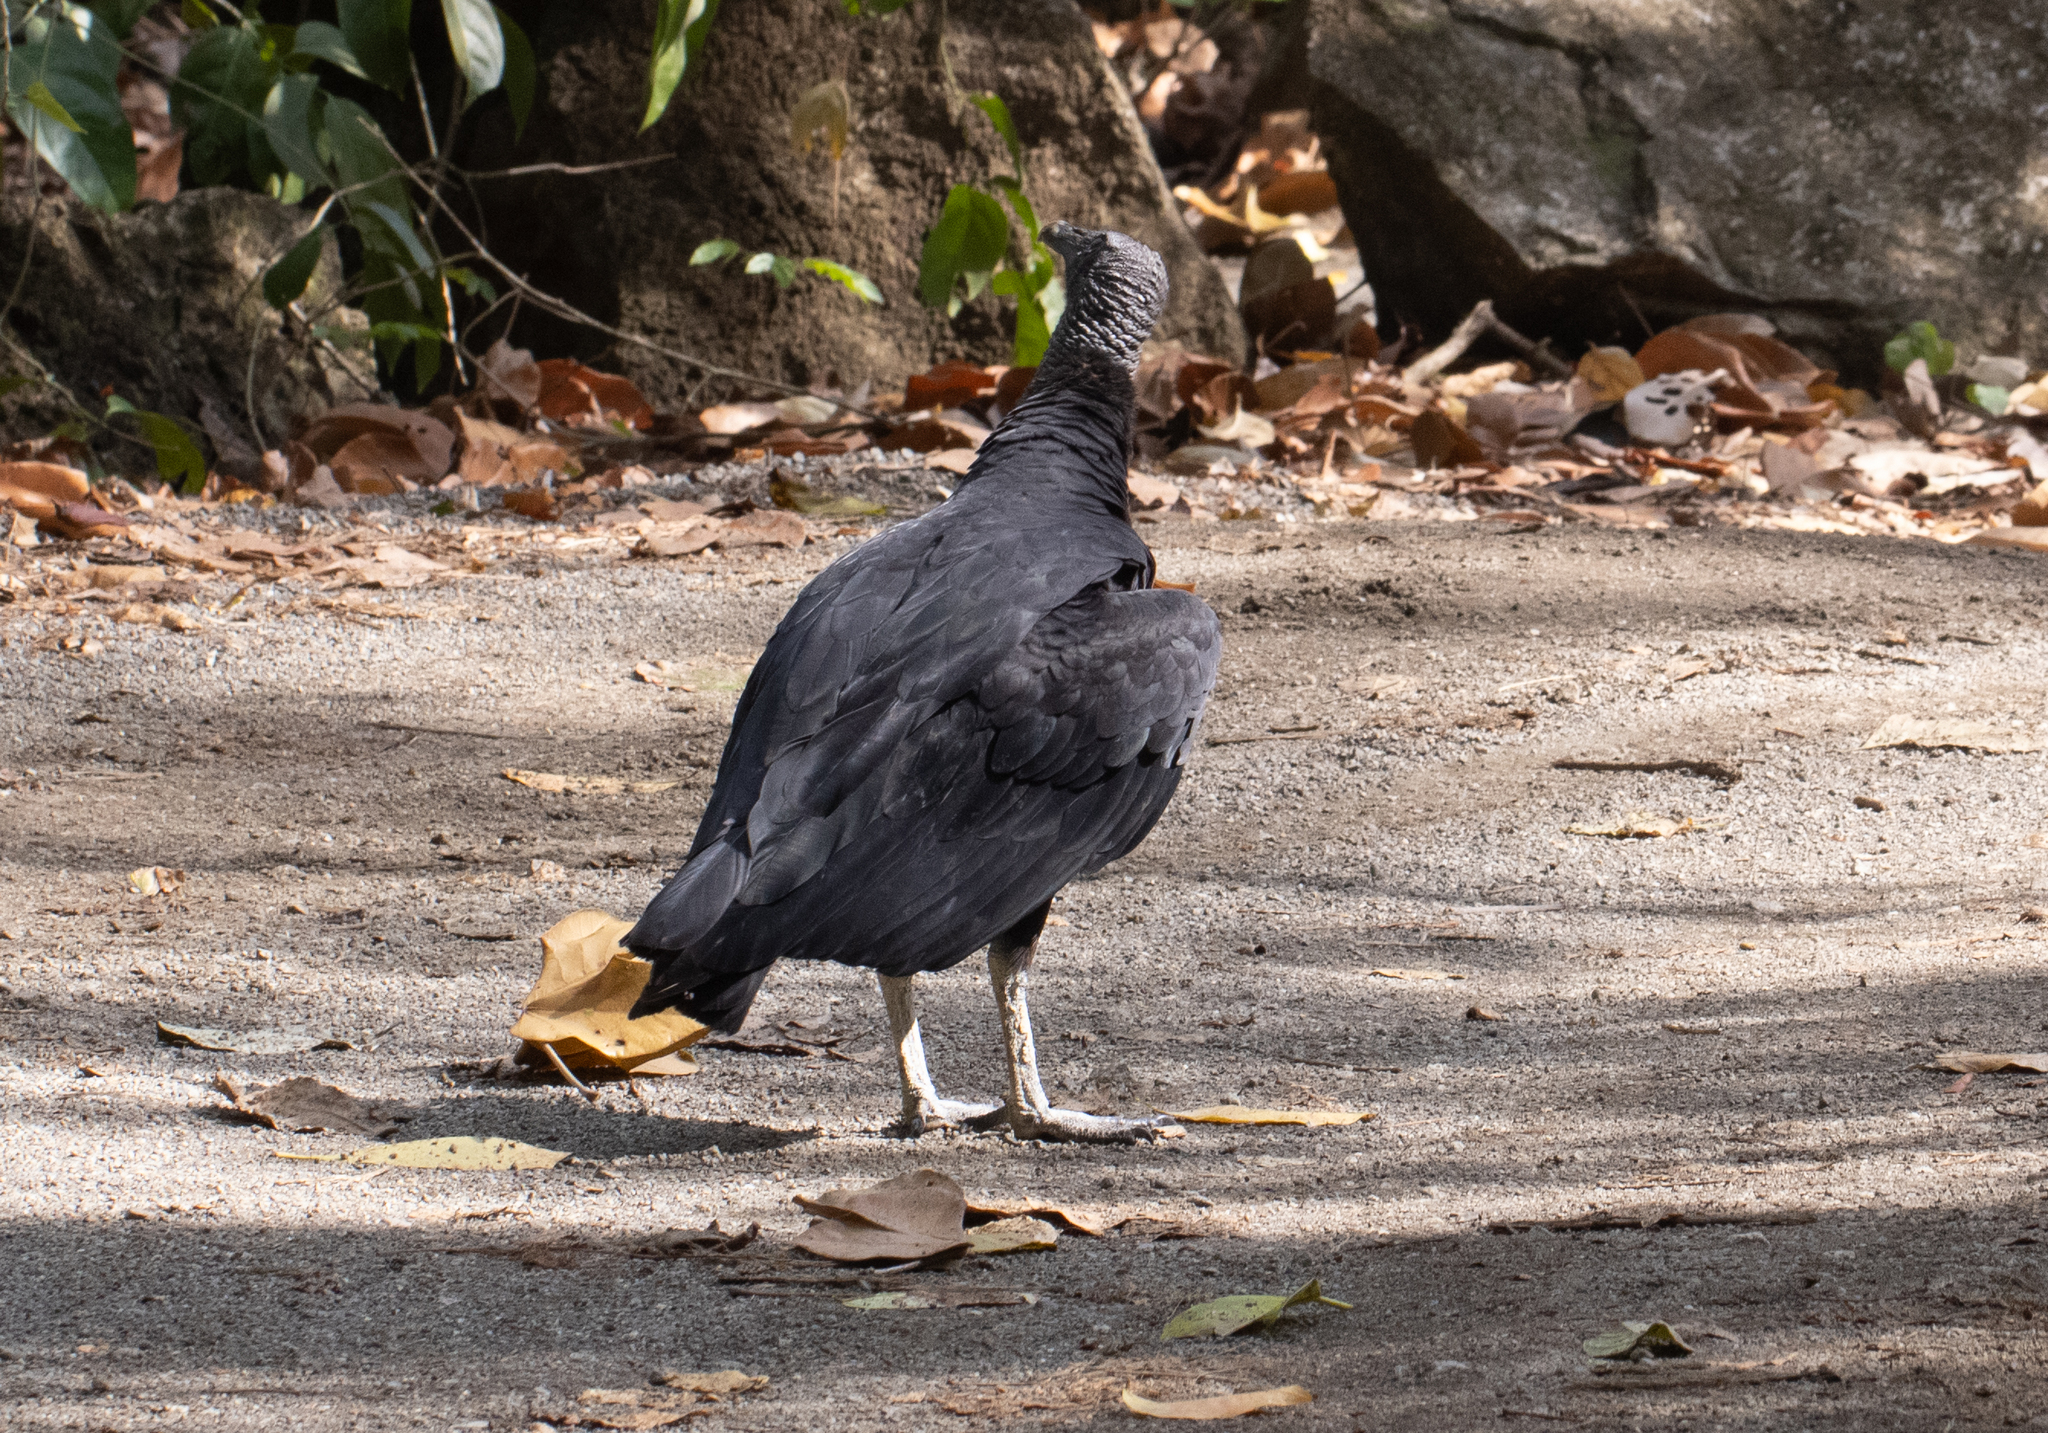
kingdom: Animalia
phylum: Chordata
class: Aves
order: Accipitriformes
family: Cathartidae
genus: Coragyps
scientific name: Coragyps atratus
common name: Black vulture
